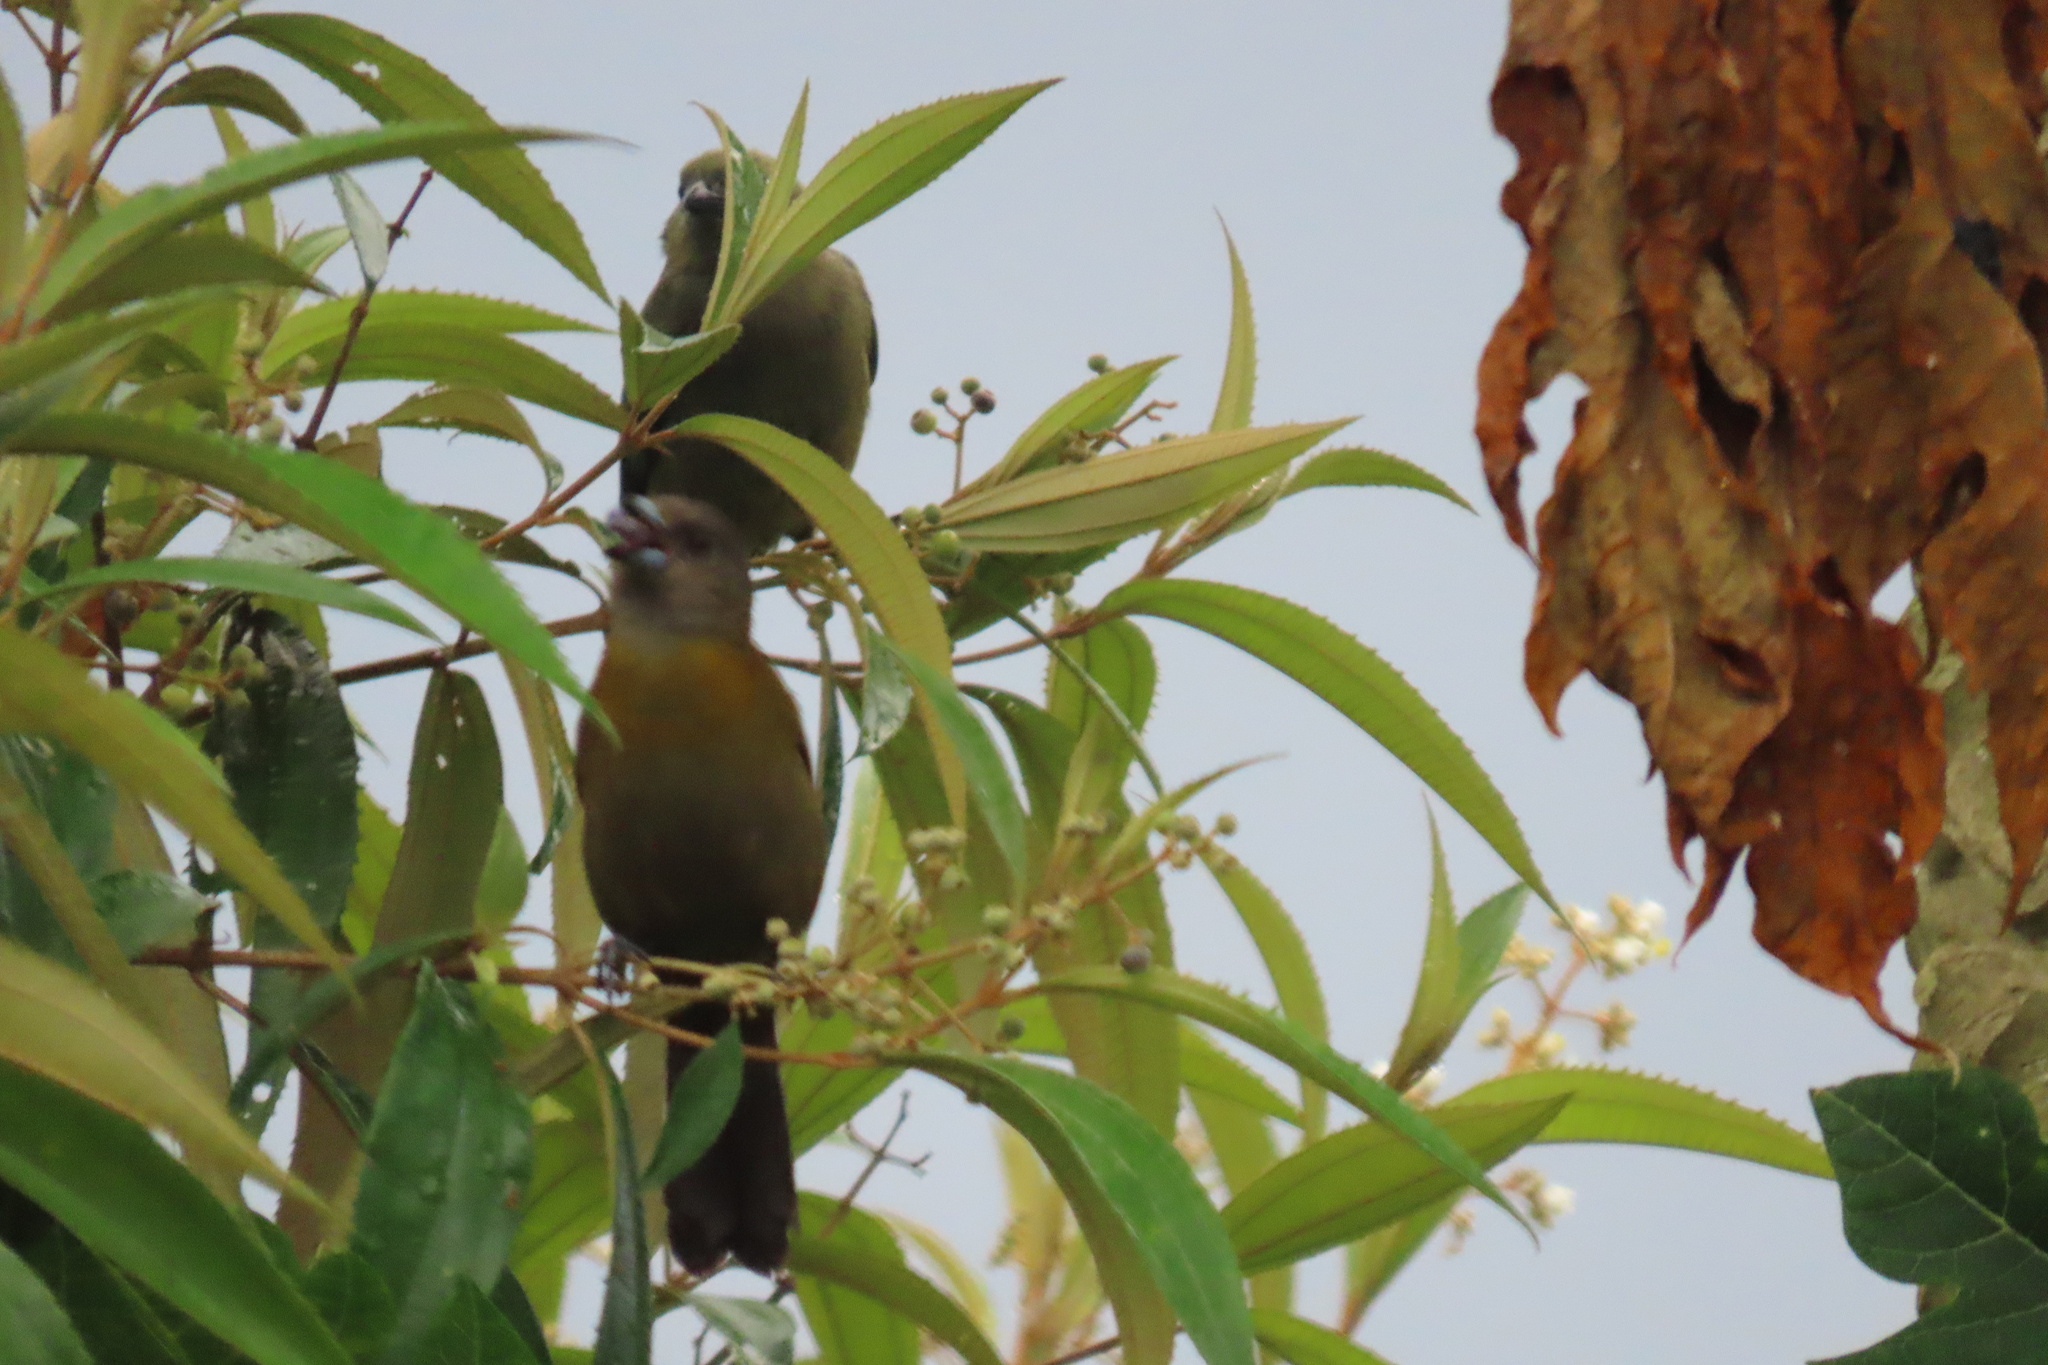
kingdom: Animalia
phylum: Chordata
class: Aves
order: Passeriformes
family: Thraupidae
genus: Ramphocelus
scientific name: Ramphocelus passerinii
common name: Passerini's tanager
